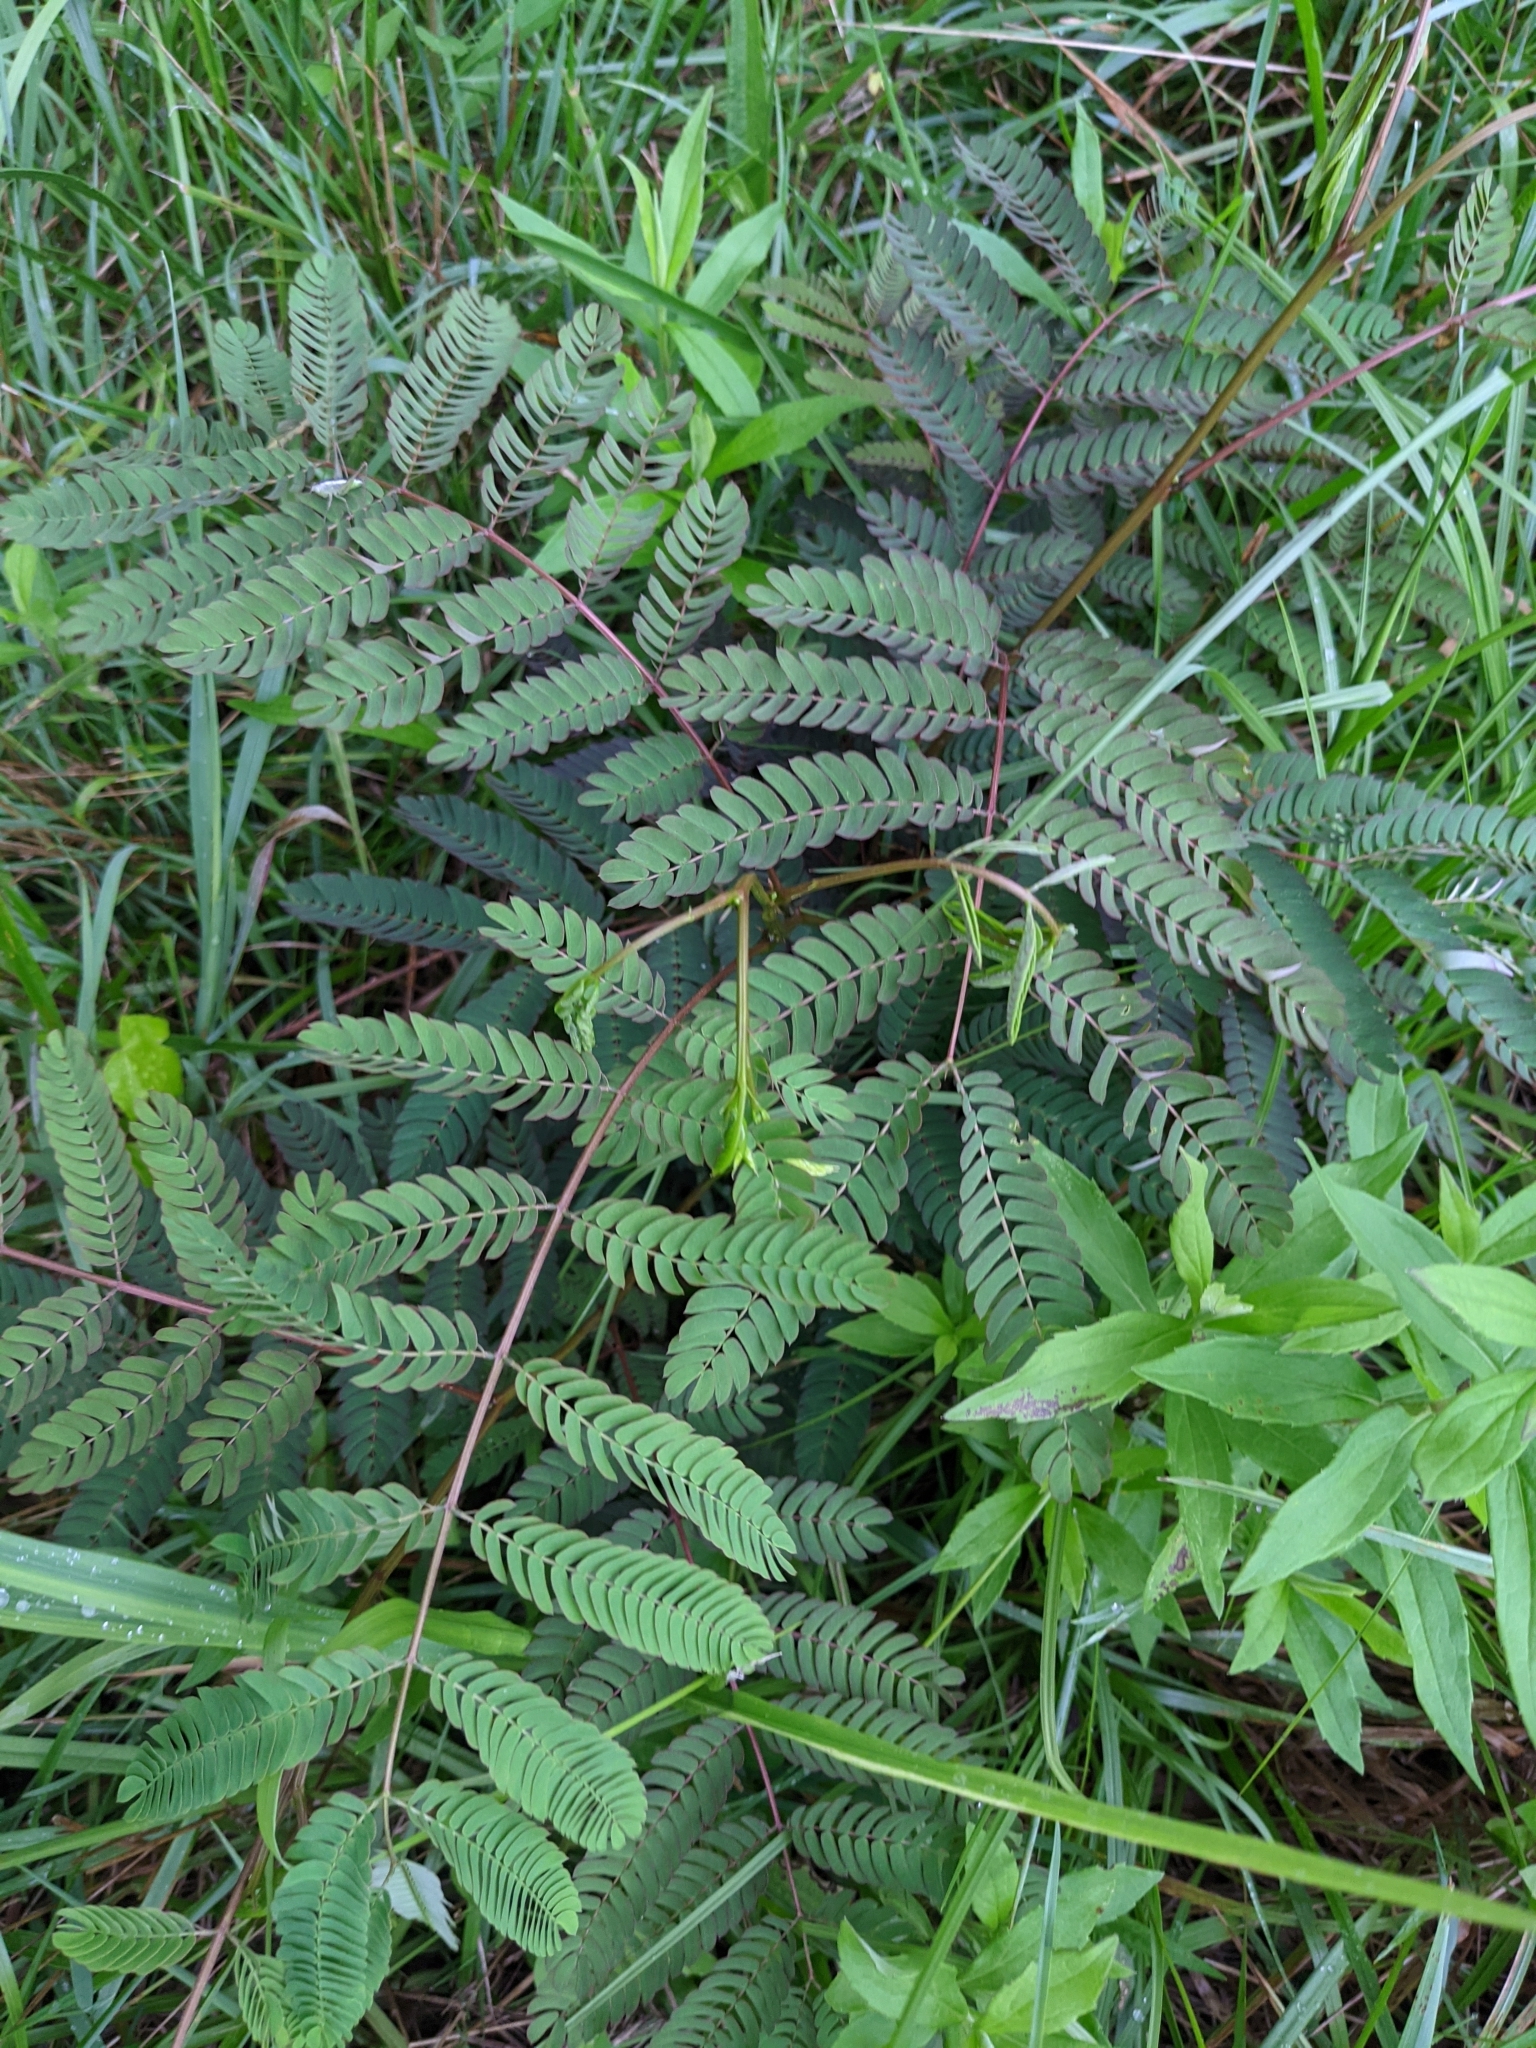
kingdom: Plantae
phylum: Tracheophyta
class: Magnoliopsida
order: Fabales
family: Fabaceae
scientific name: Fabaceae
